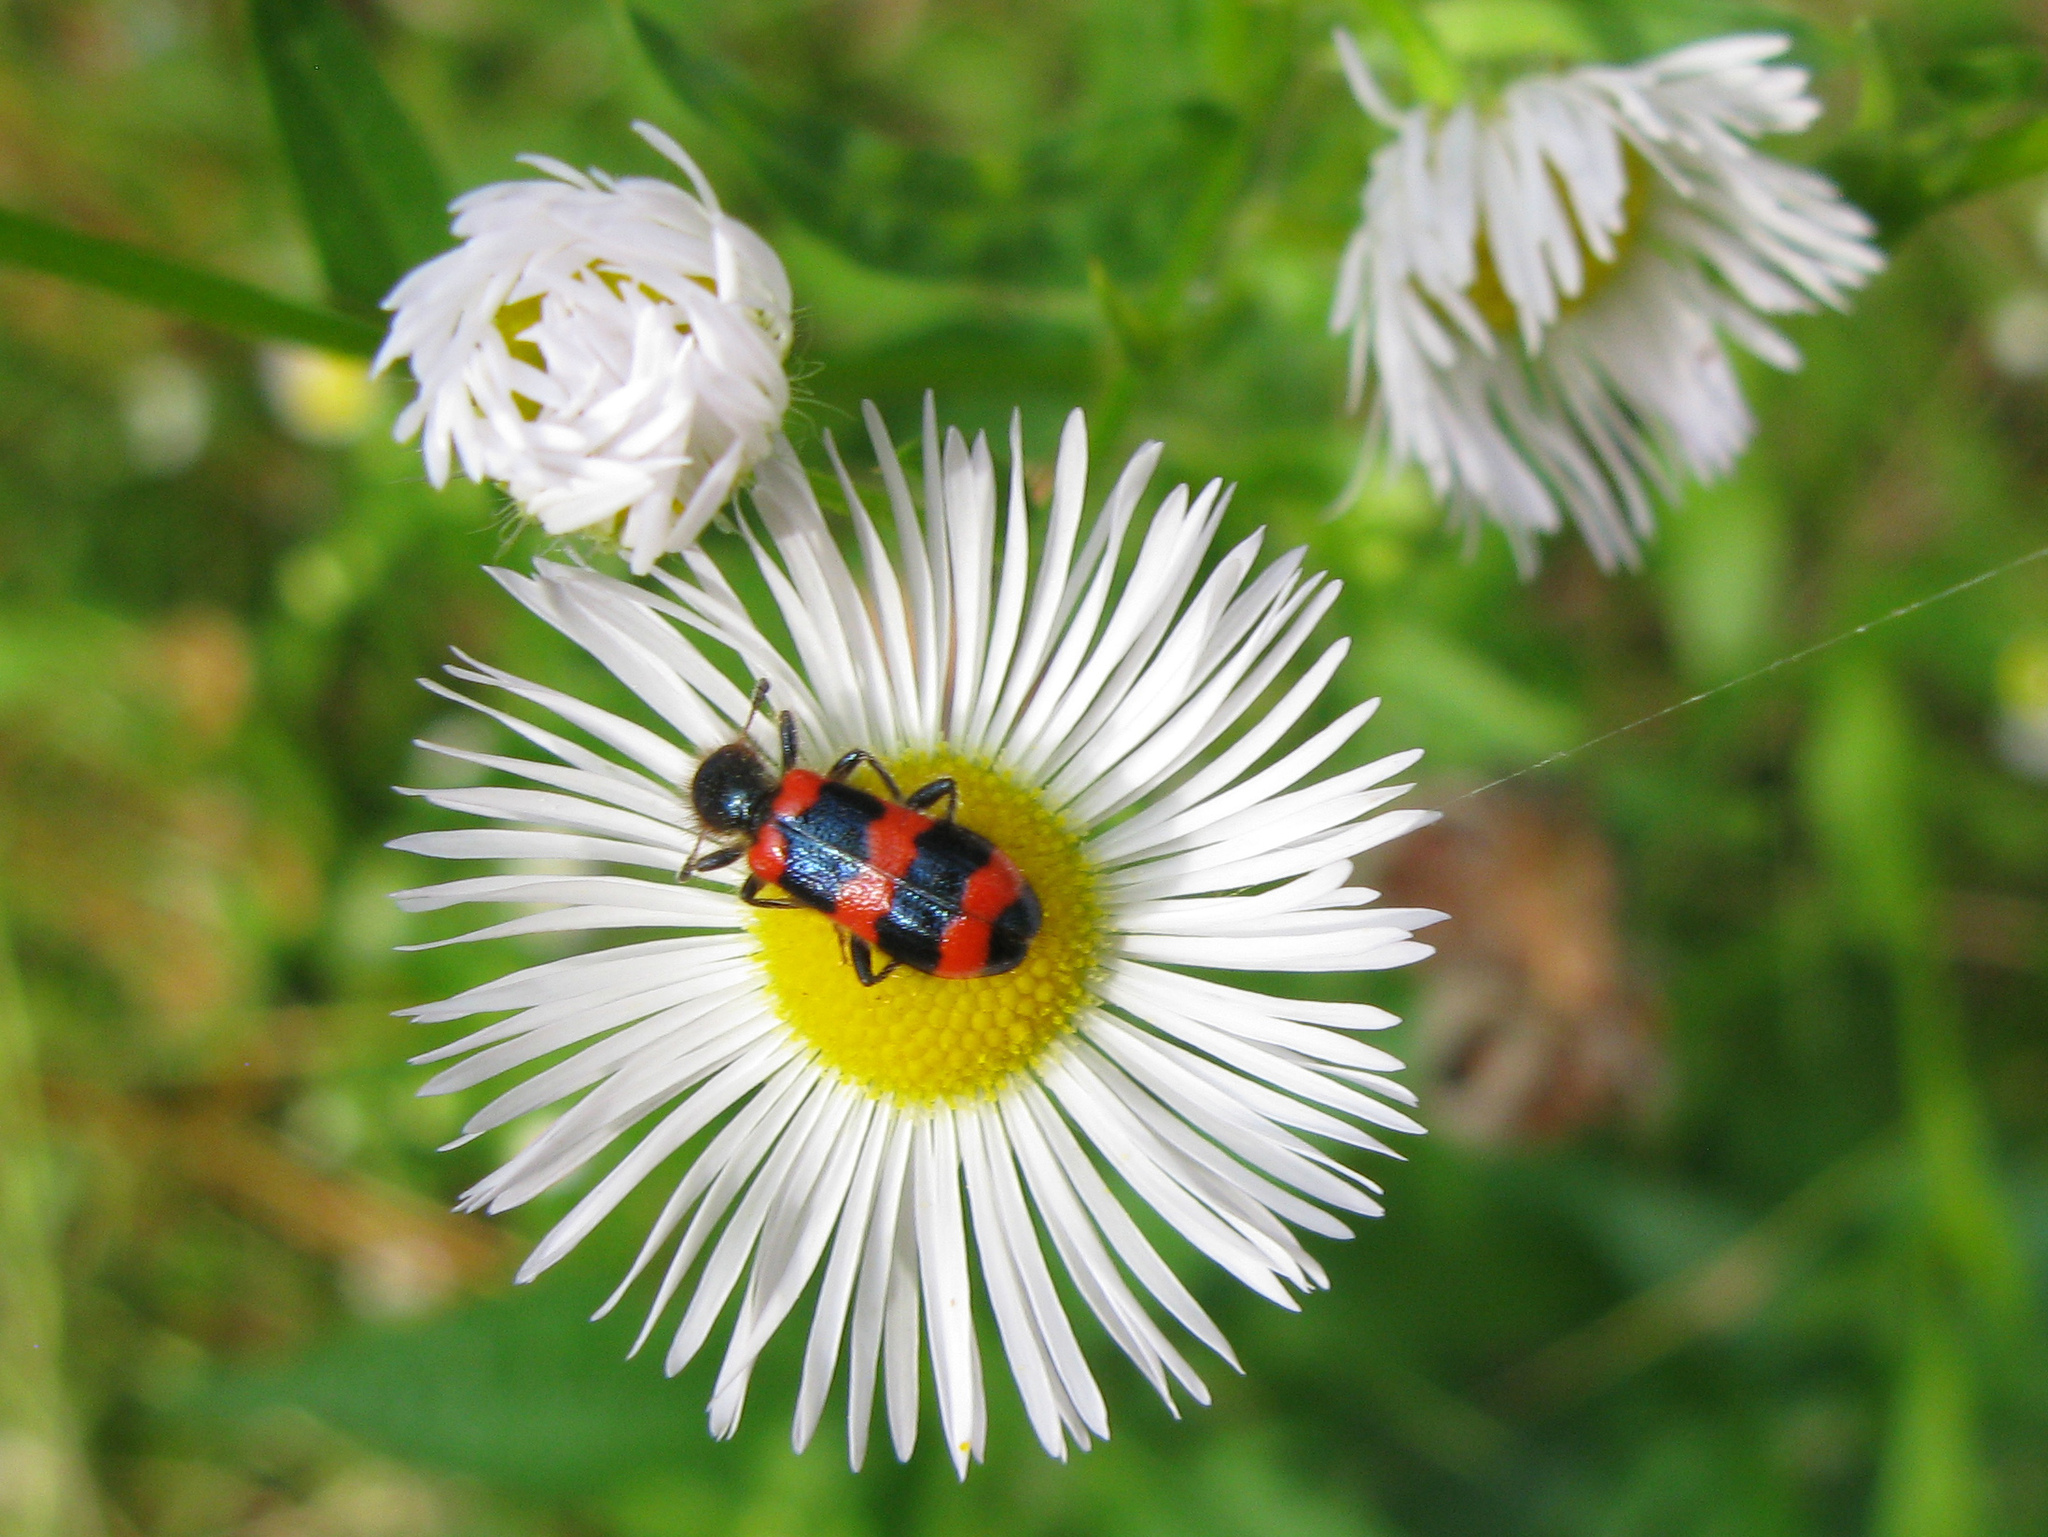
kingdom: Animalia
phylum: Arthropoda
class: Insecta
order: Coleoptera
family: Cleridae
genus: Trichodes
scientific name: Trichodes apiarius
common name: Bee-eating beetle
